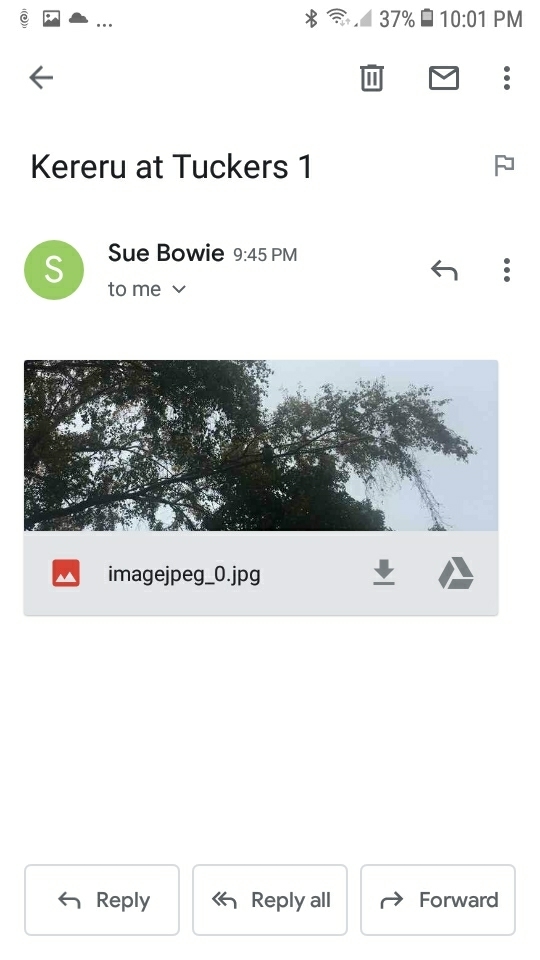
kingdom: Animalia
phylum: Chordata
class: Aves
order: Columbiformes
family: Columbidae
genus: Hemiphaga
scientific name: Hemiphaga novaeseelandiae
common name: New zealand pigeon
